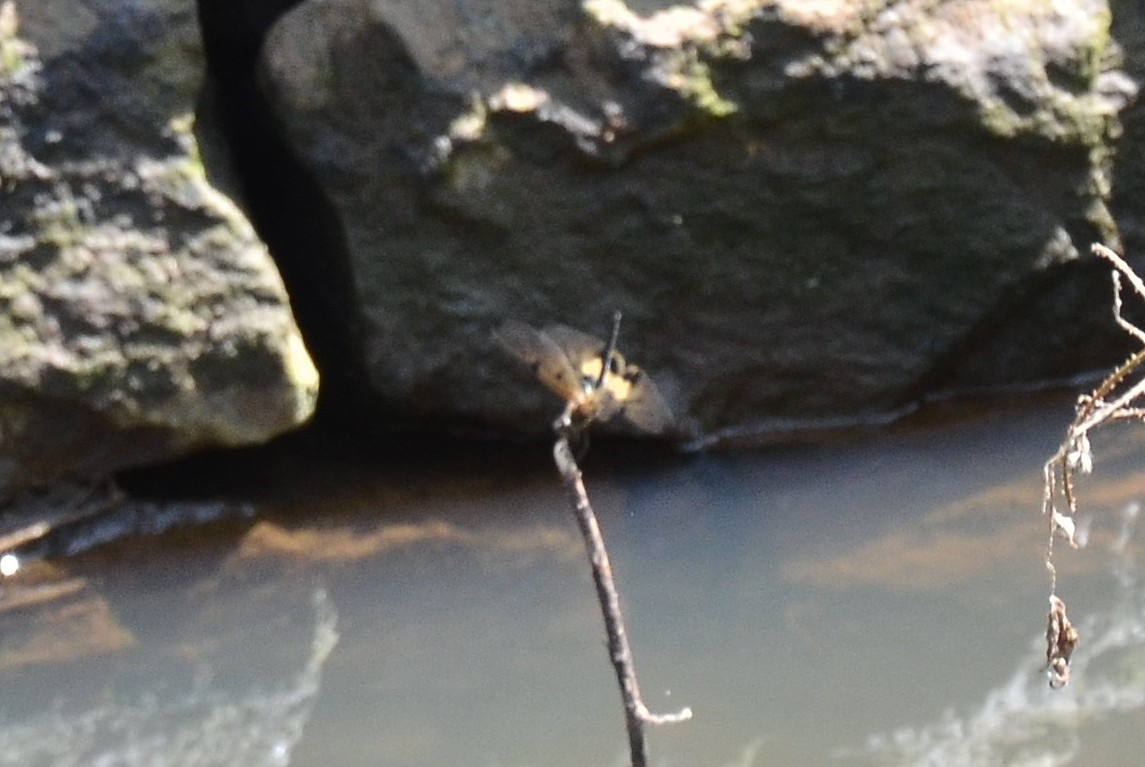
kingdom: Animalia
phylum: Arthropoda
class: Insecta
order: Odonata
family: Libellulidae
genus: Rhyothemis
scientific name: Rhyothemis variegata
